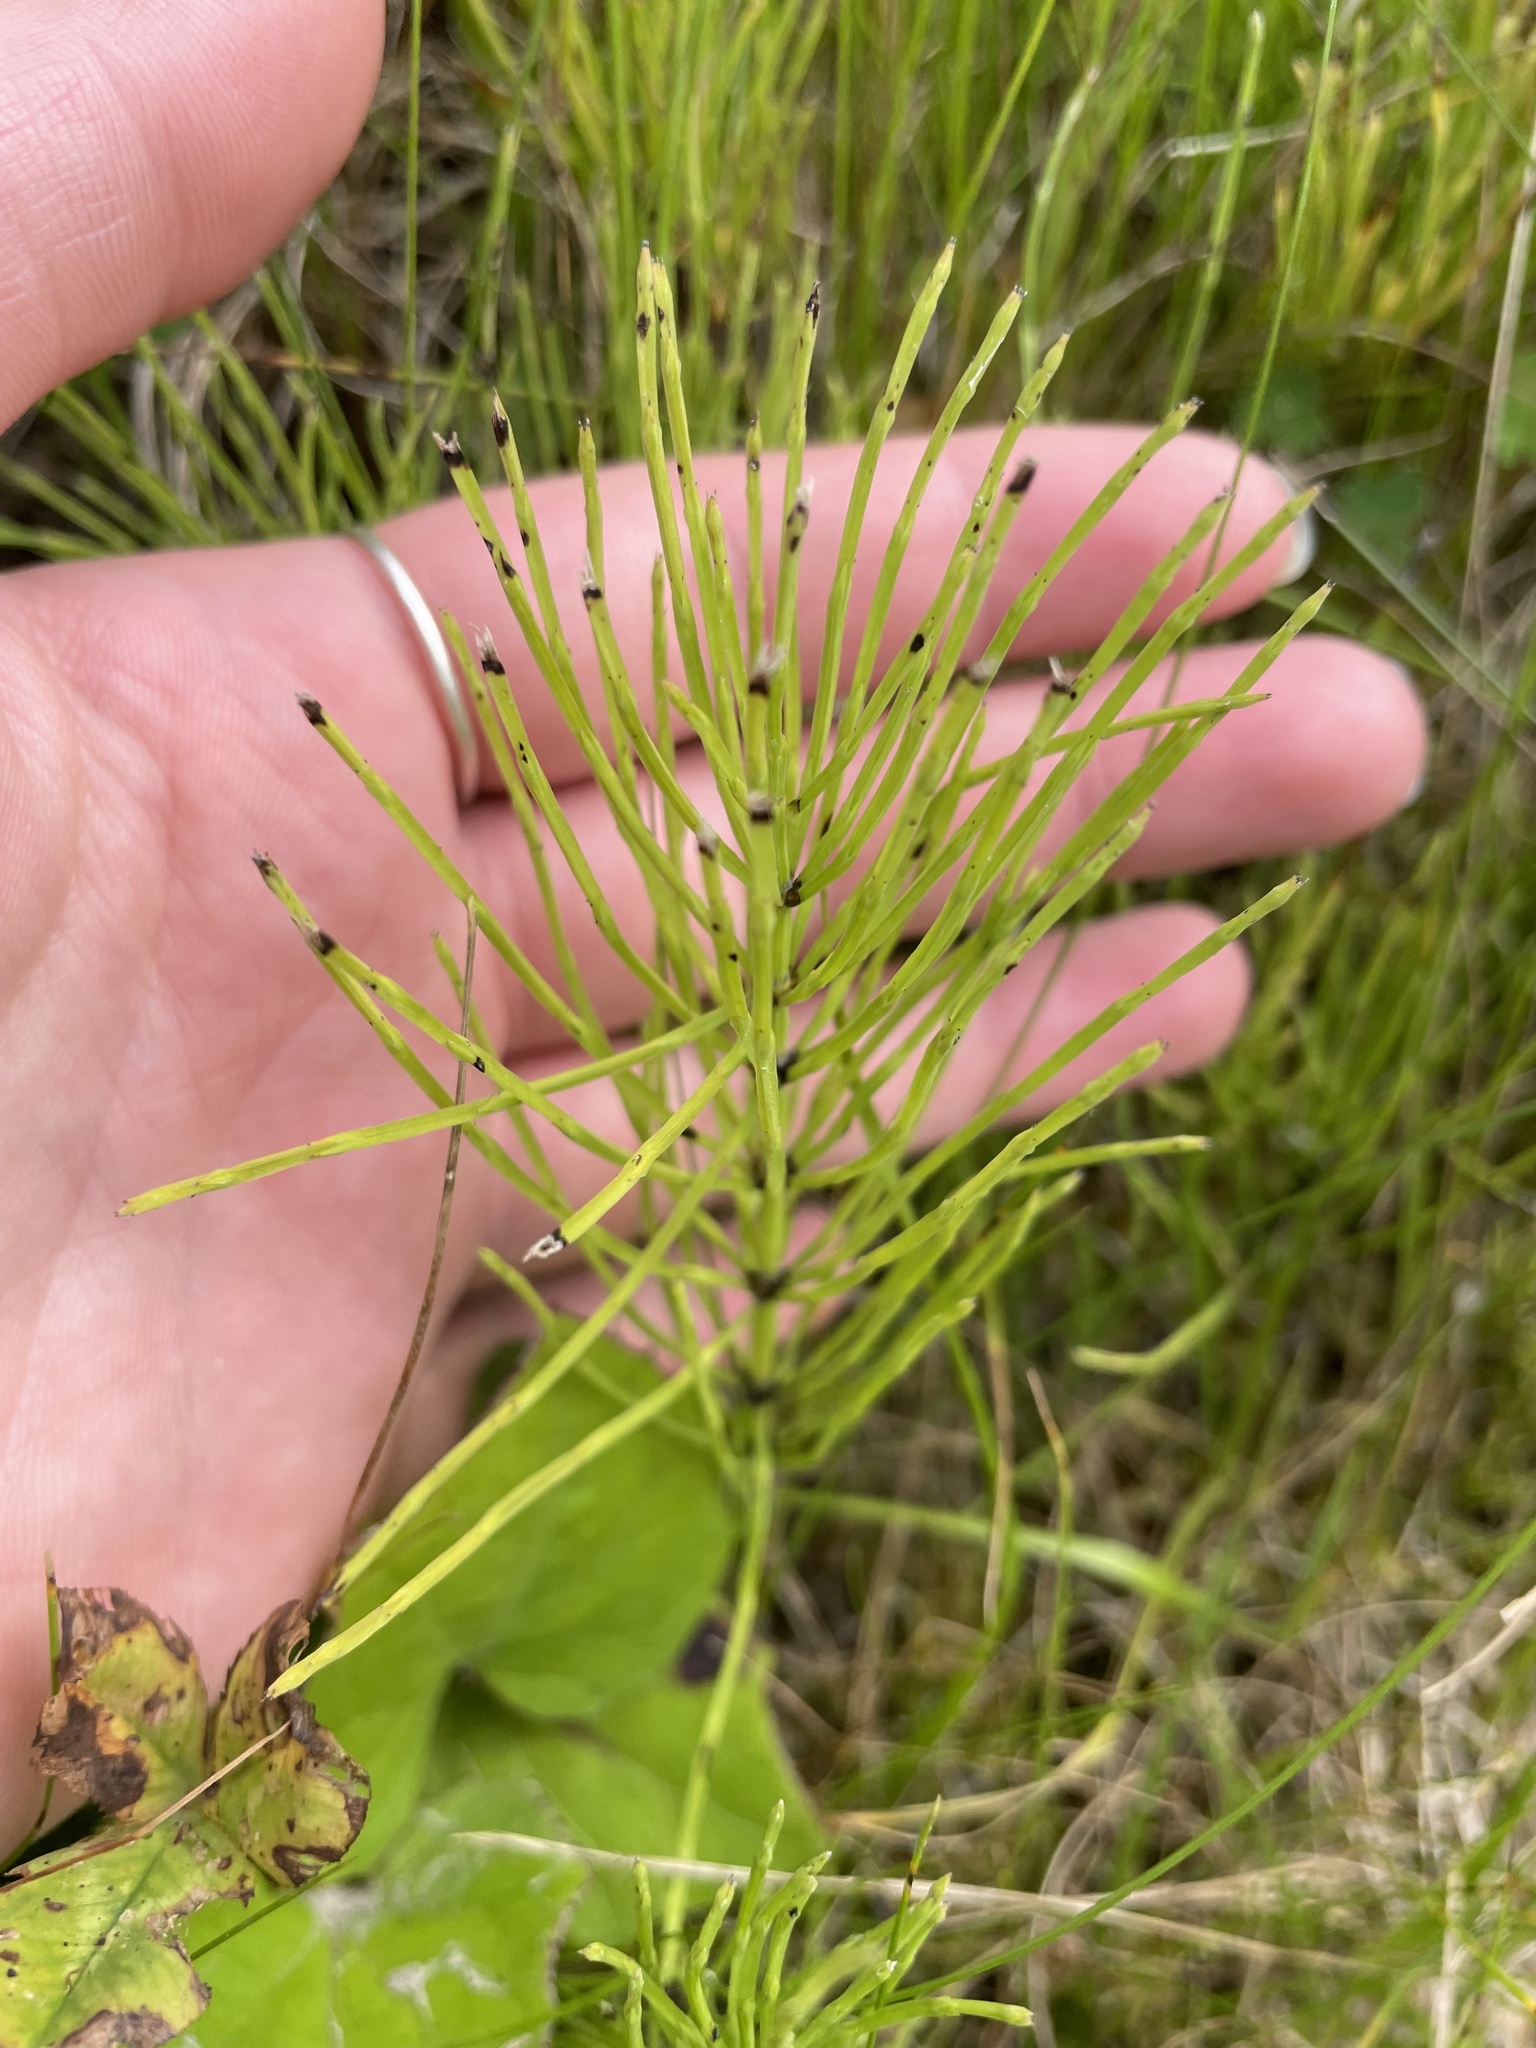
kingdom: Plantae
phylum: Tracheophyta
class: Polypodiopsida
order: Equisetales
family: Equisetaceae
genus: Equisetum
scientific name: Equisetum arvense
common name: Field horsetail
